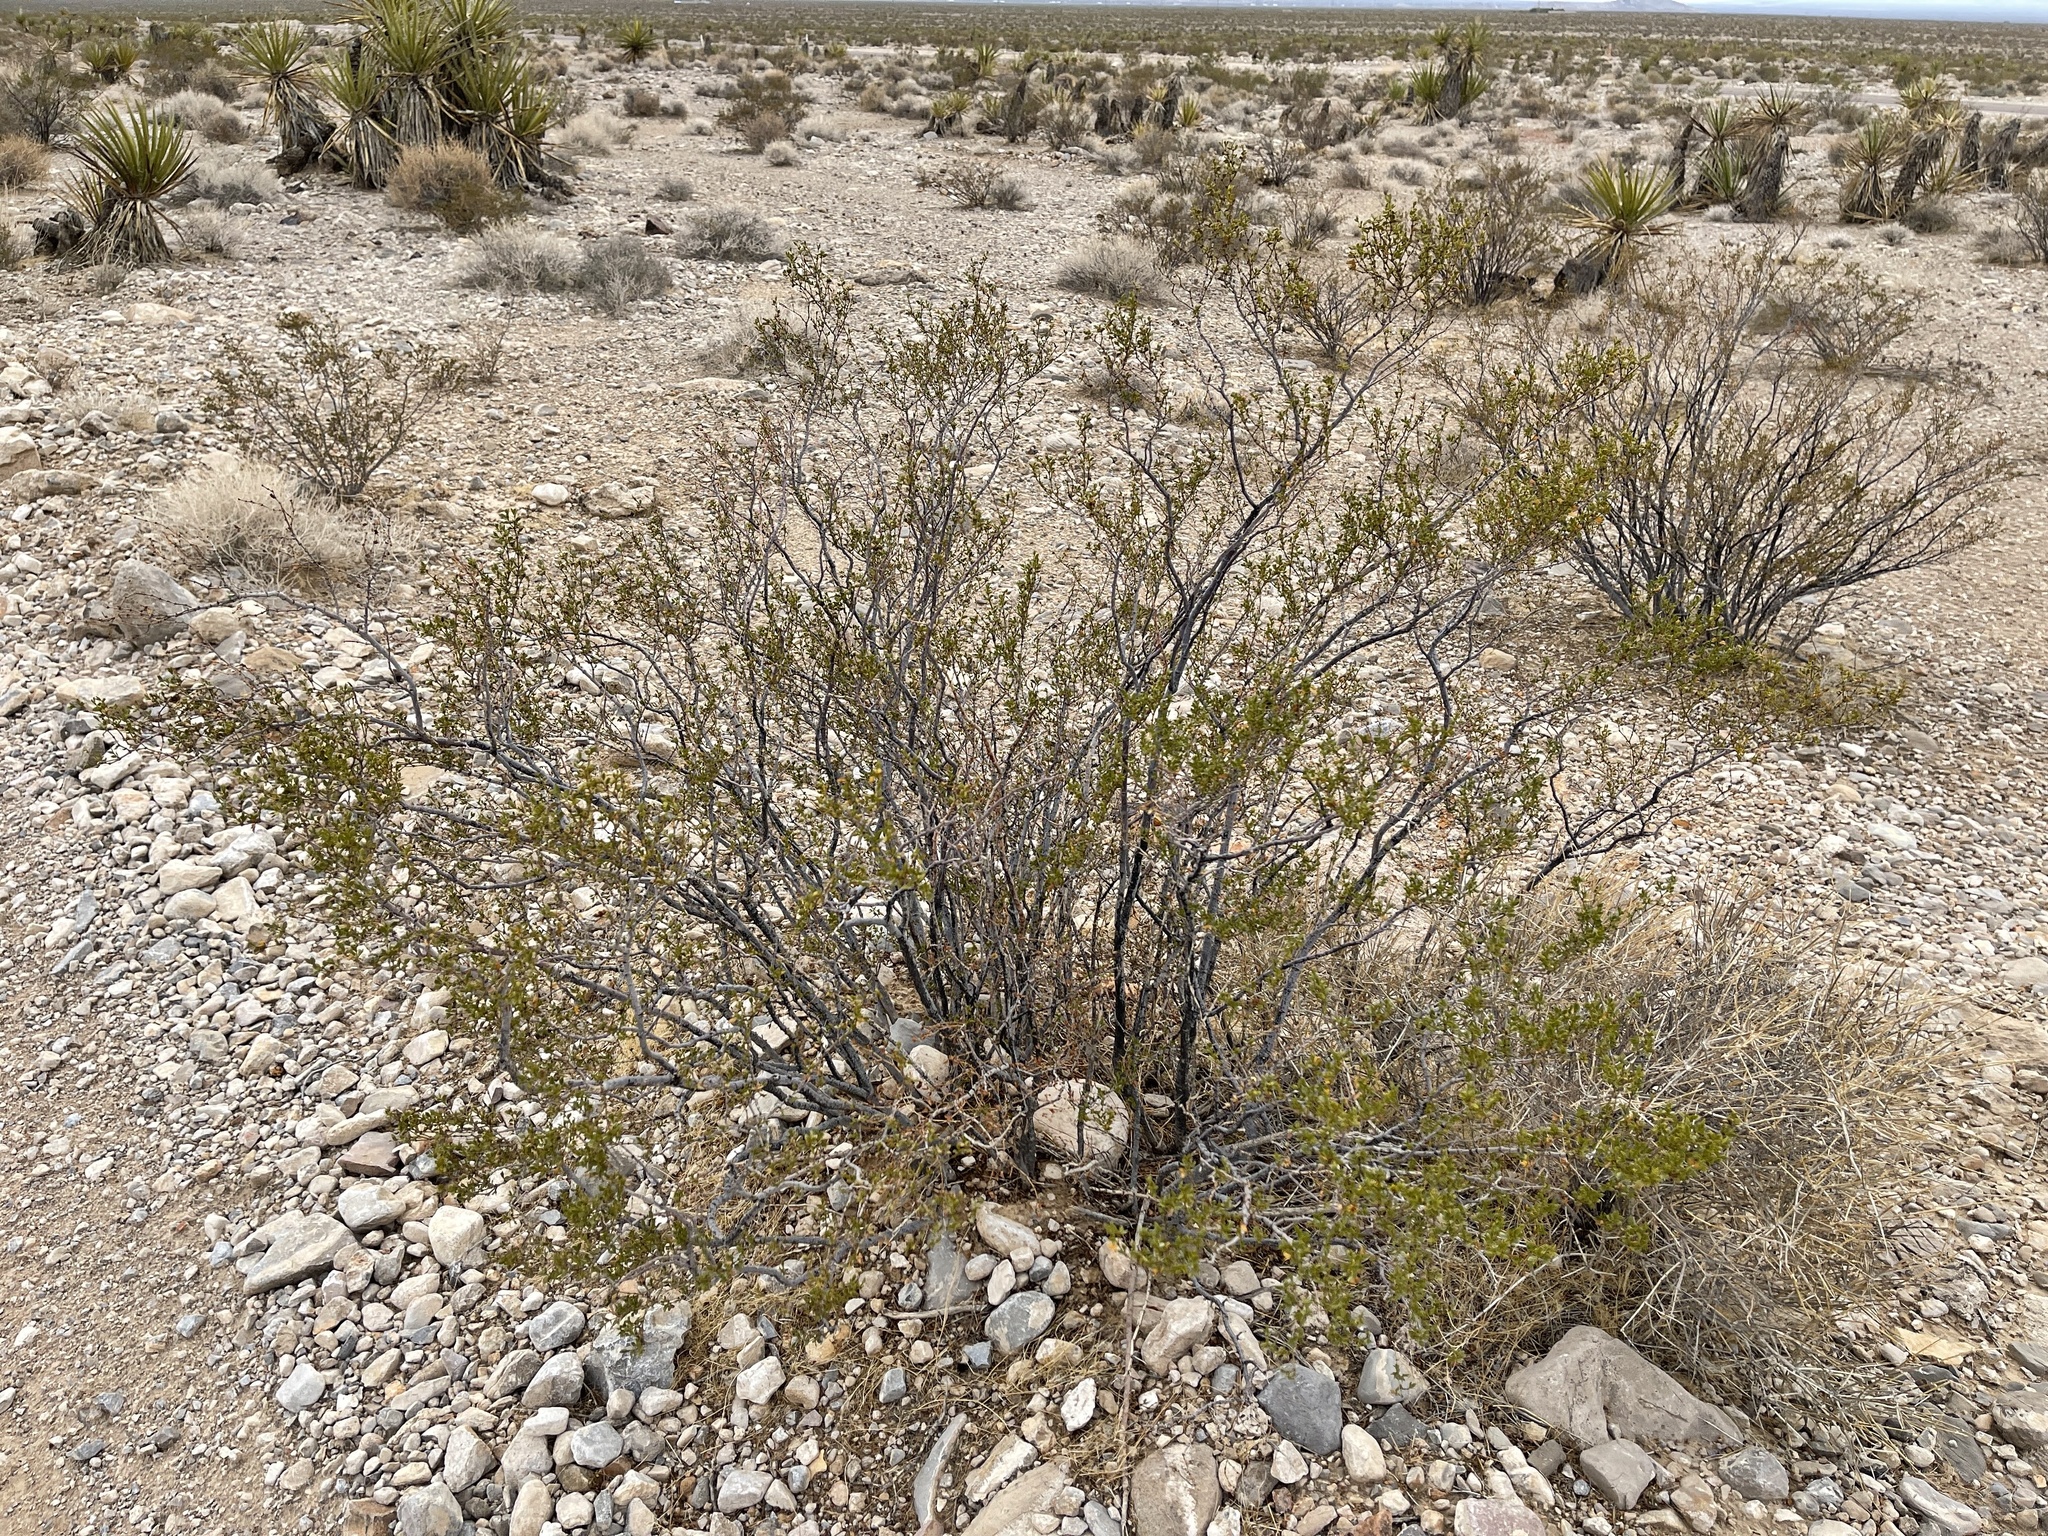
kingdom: Plantae
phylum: Tracheophyta
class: Magnoliopsida
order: Zygophyllales
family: Zygophyllaceae
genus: Larrea
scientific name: Larrea tridentata
